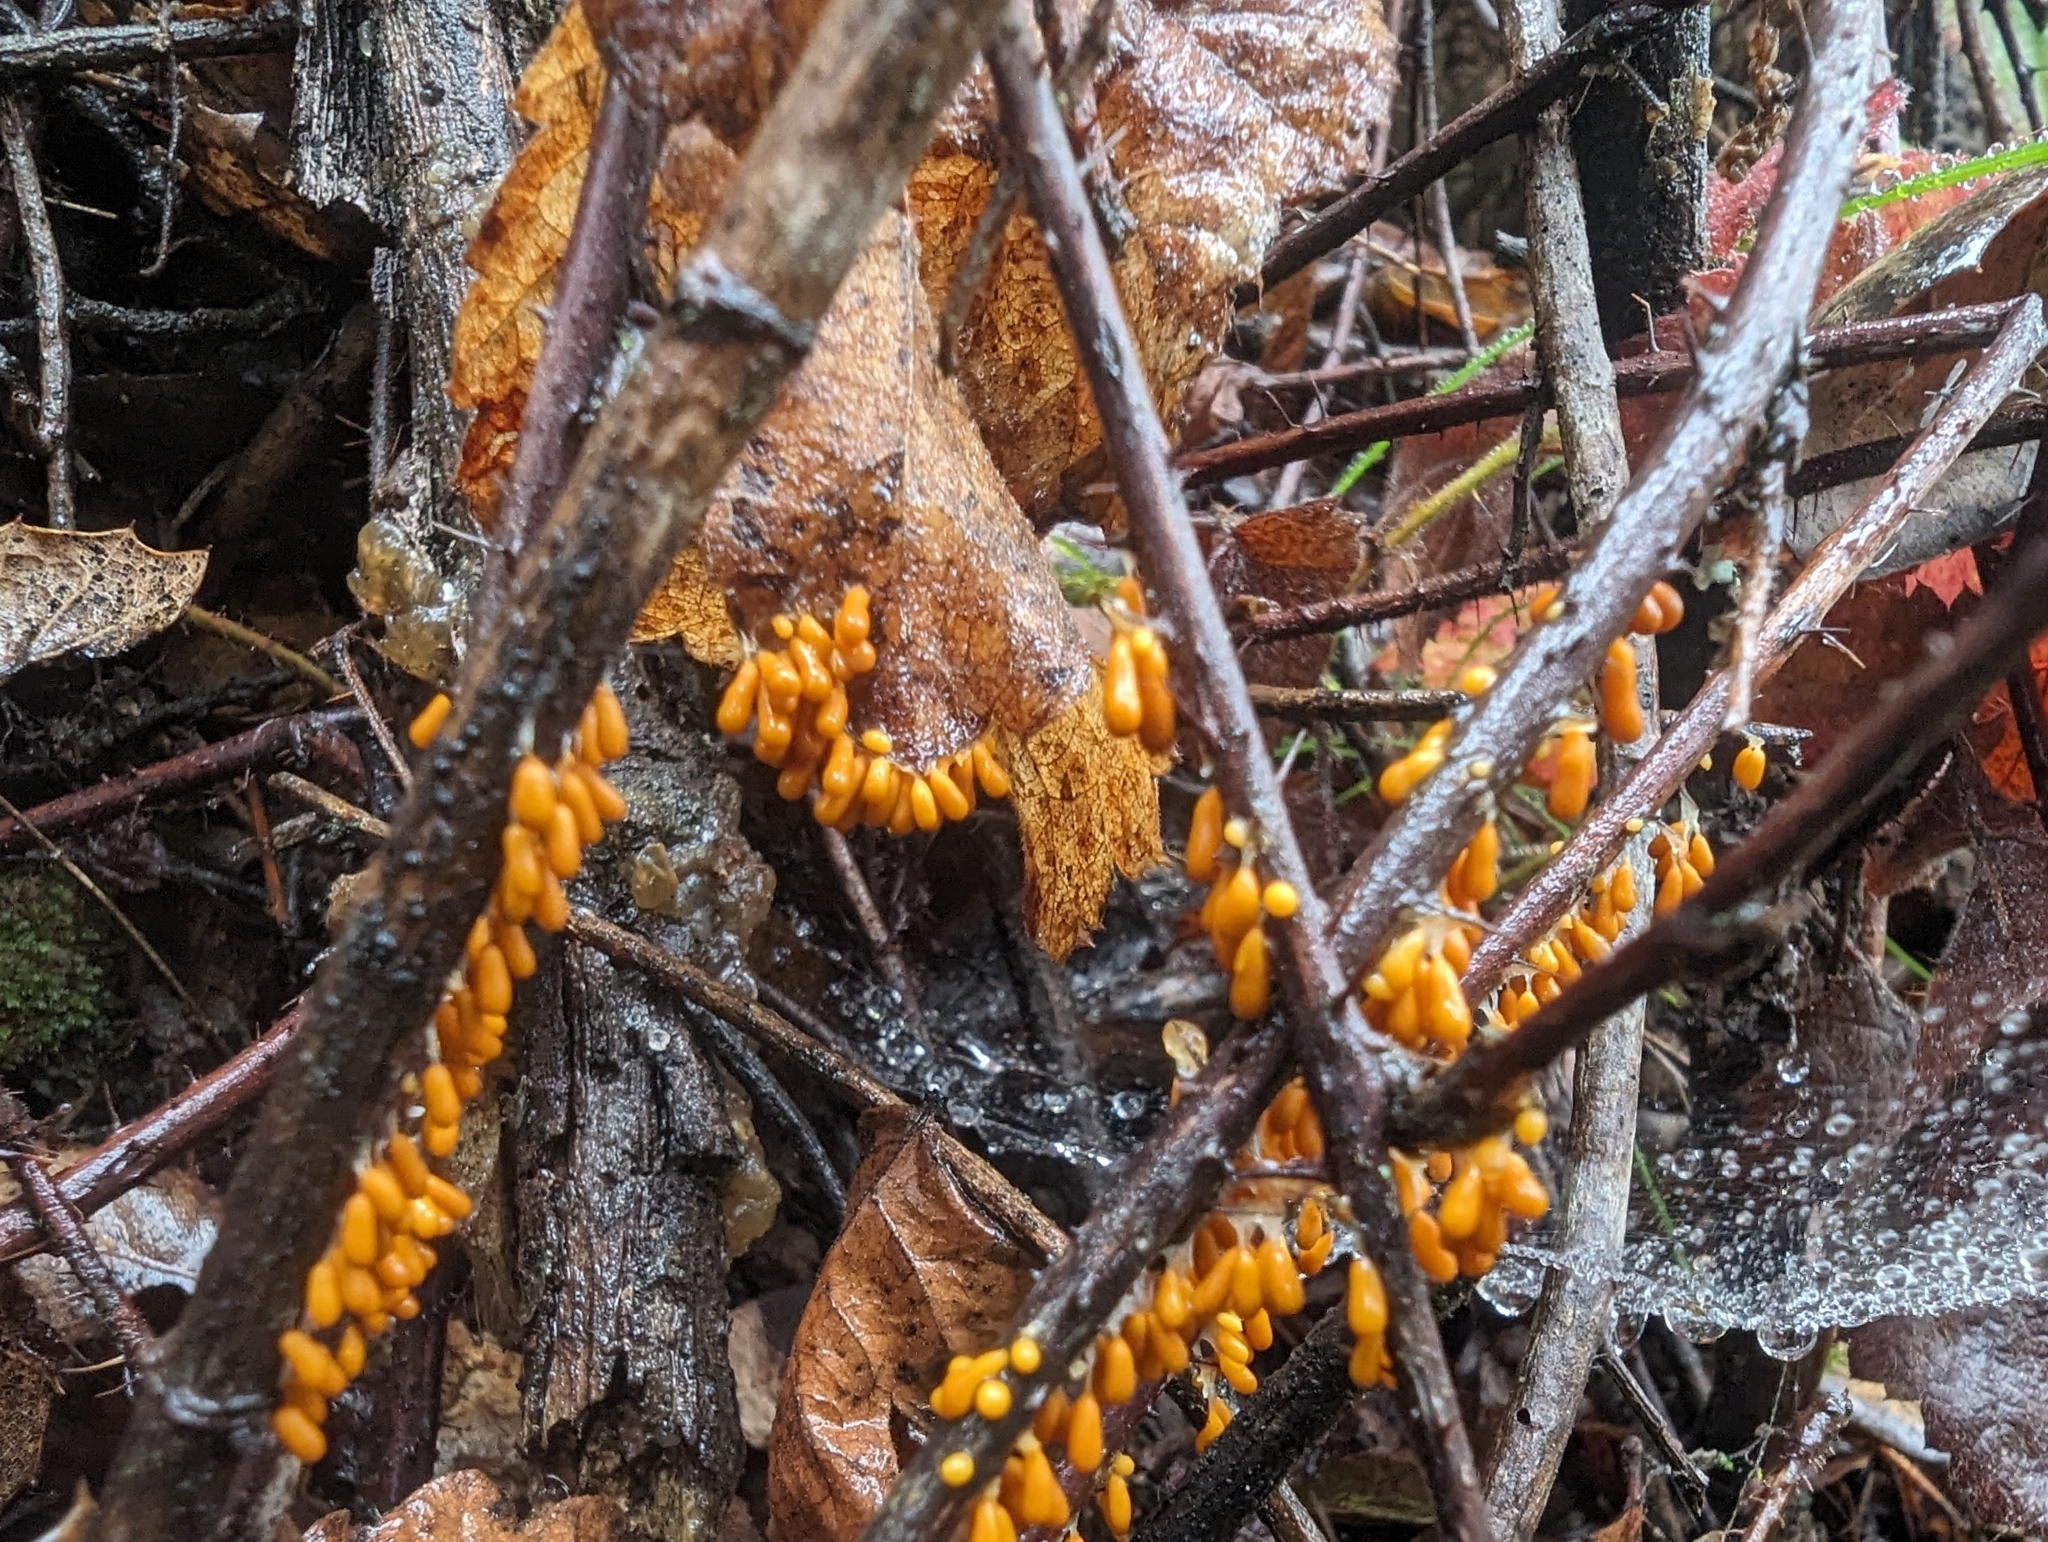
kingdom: Protozoa
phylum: Mycetozoa
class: Myxomycetes
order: Physarales
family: Physaraceae
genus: Leocarpus
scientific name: Leocarpus fragilis
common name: Insect-egg slime
